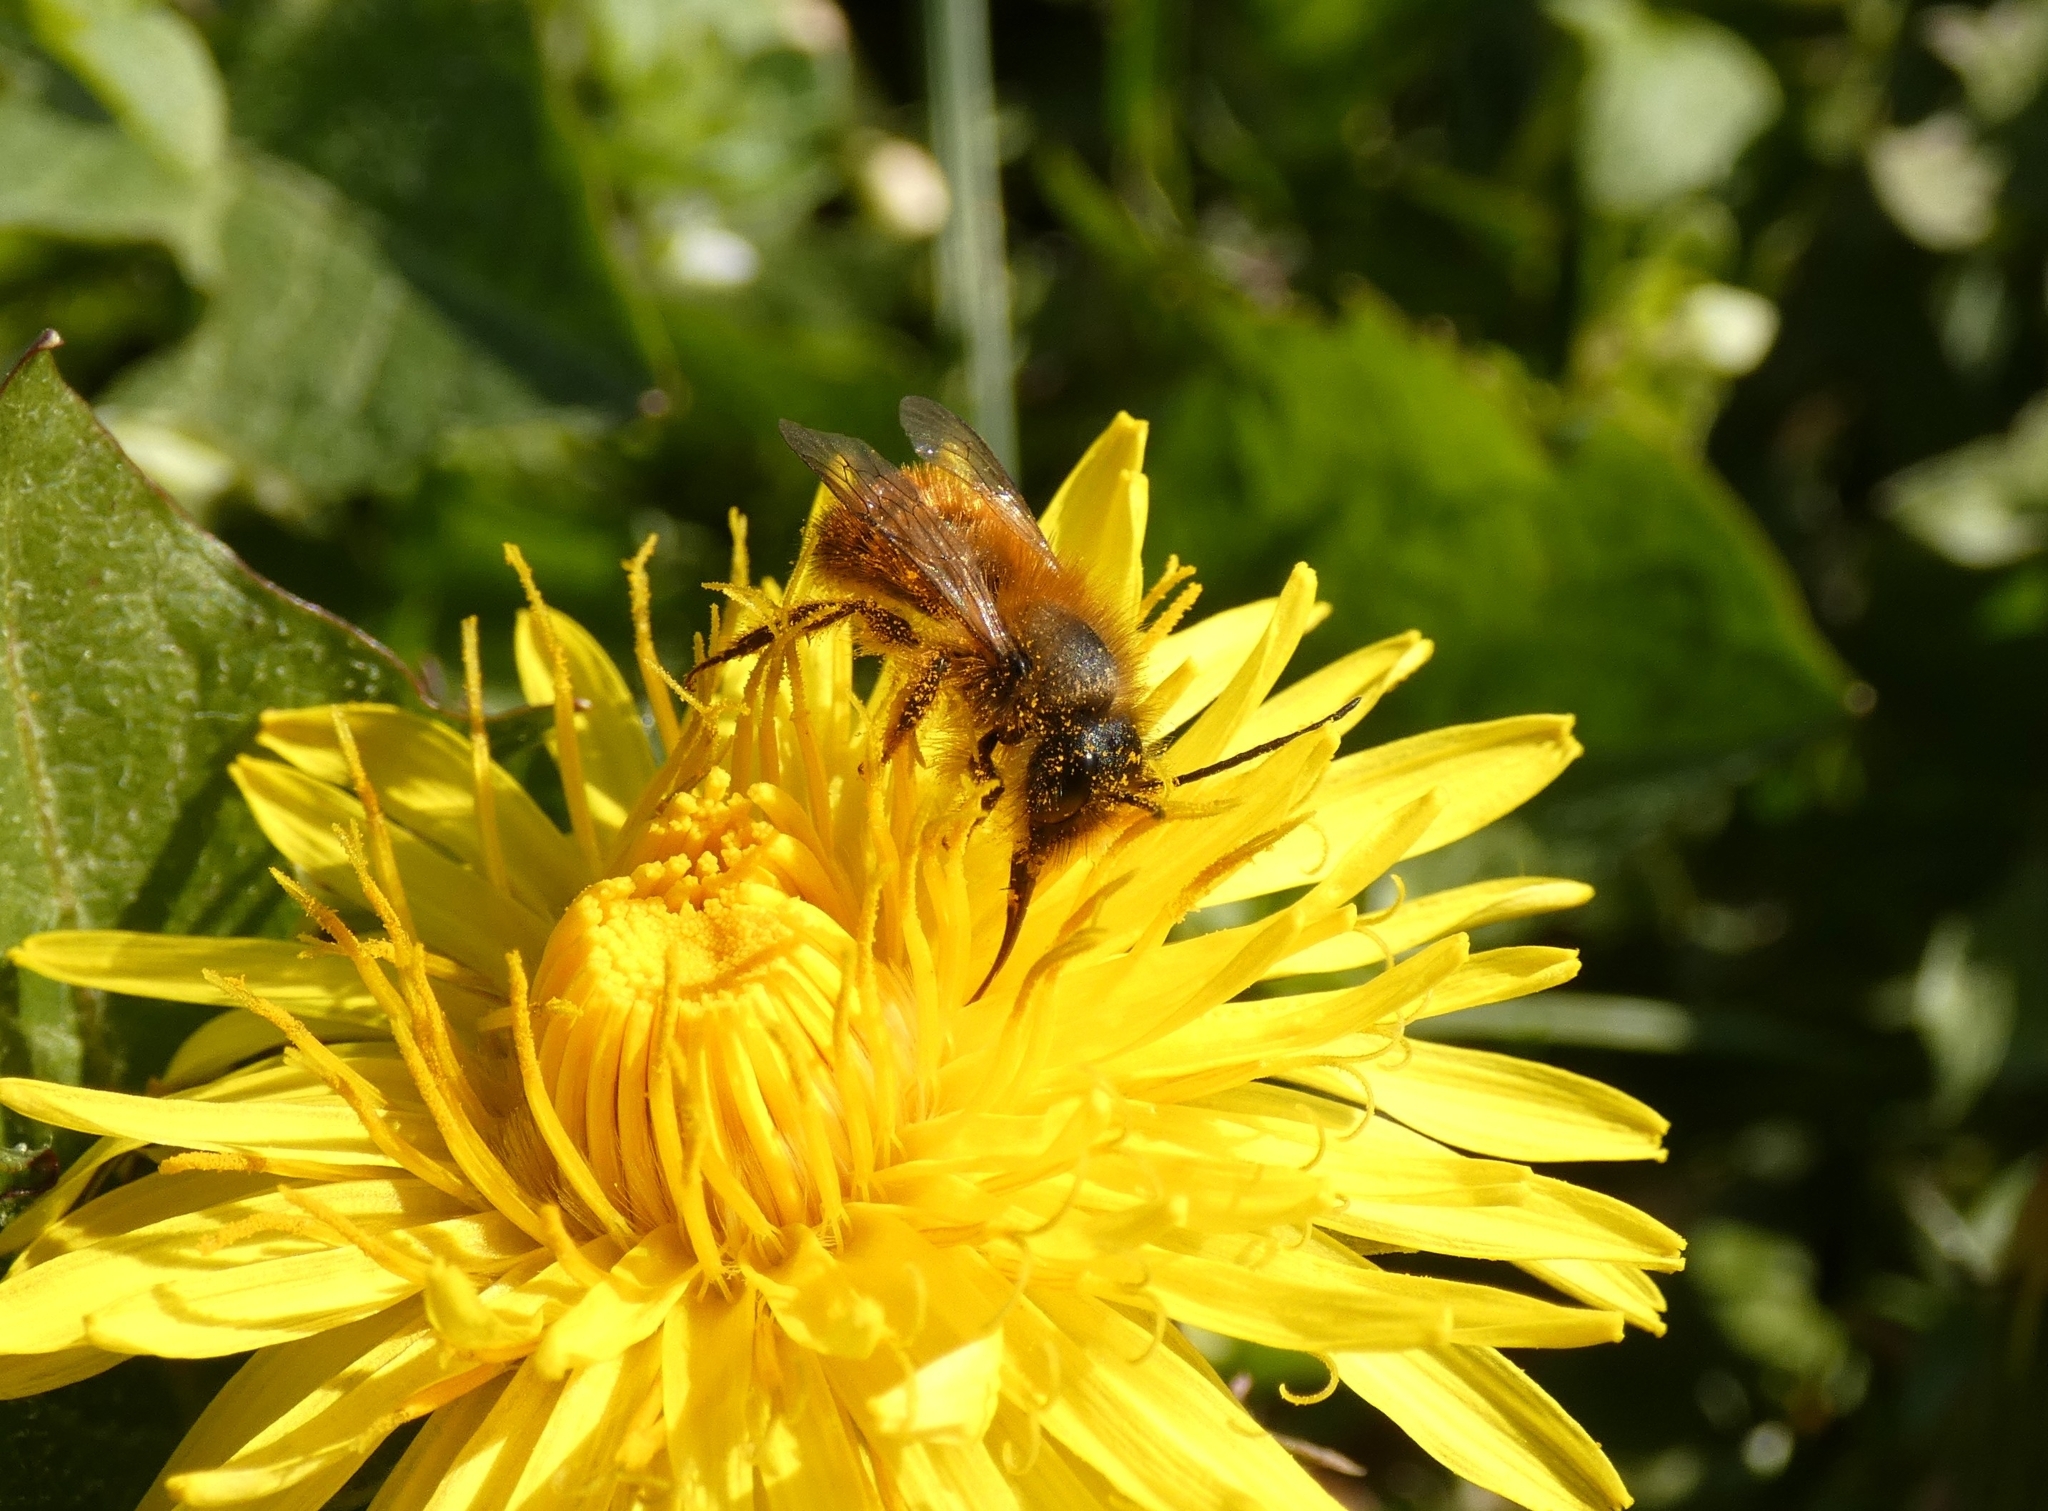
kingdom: Animalia
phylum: Arthropoda
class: Insecta
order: Hymenoptera
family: Megachilidae
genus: Osmia
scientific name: Osmia bicornis
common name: Red mason bee
